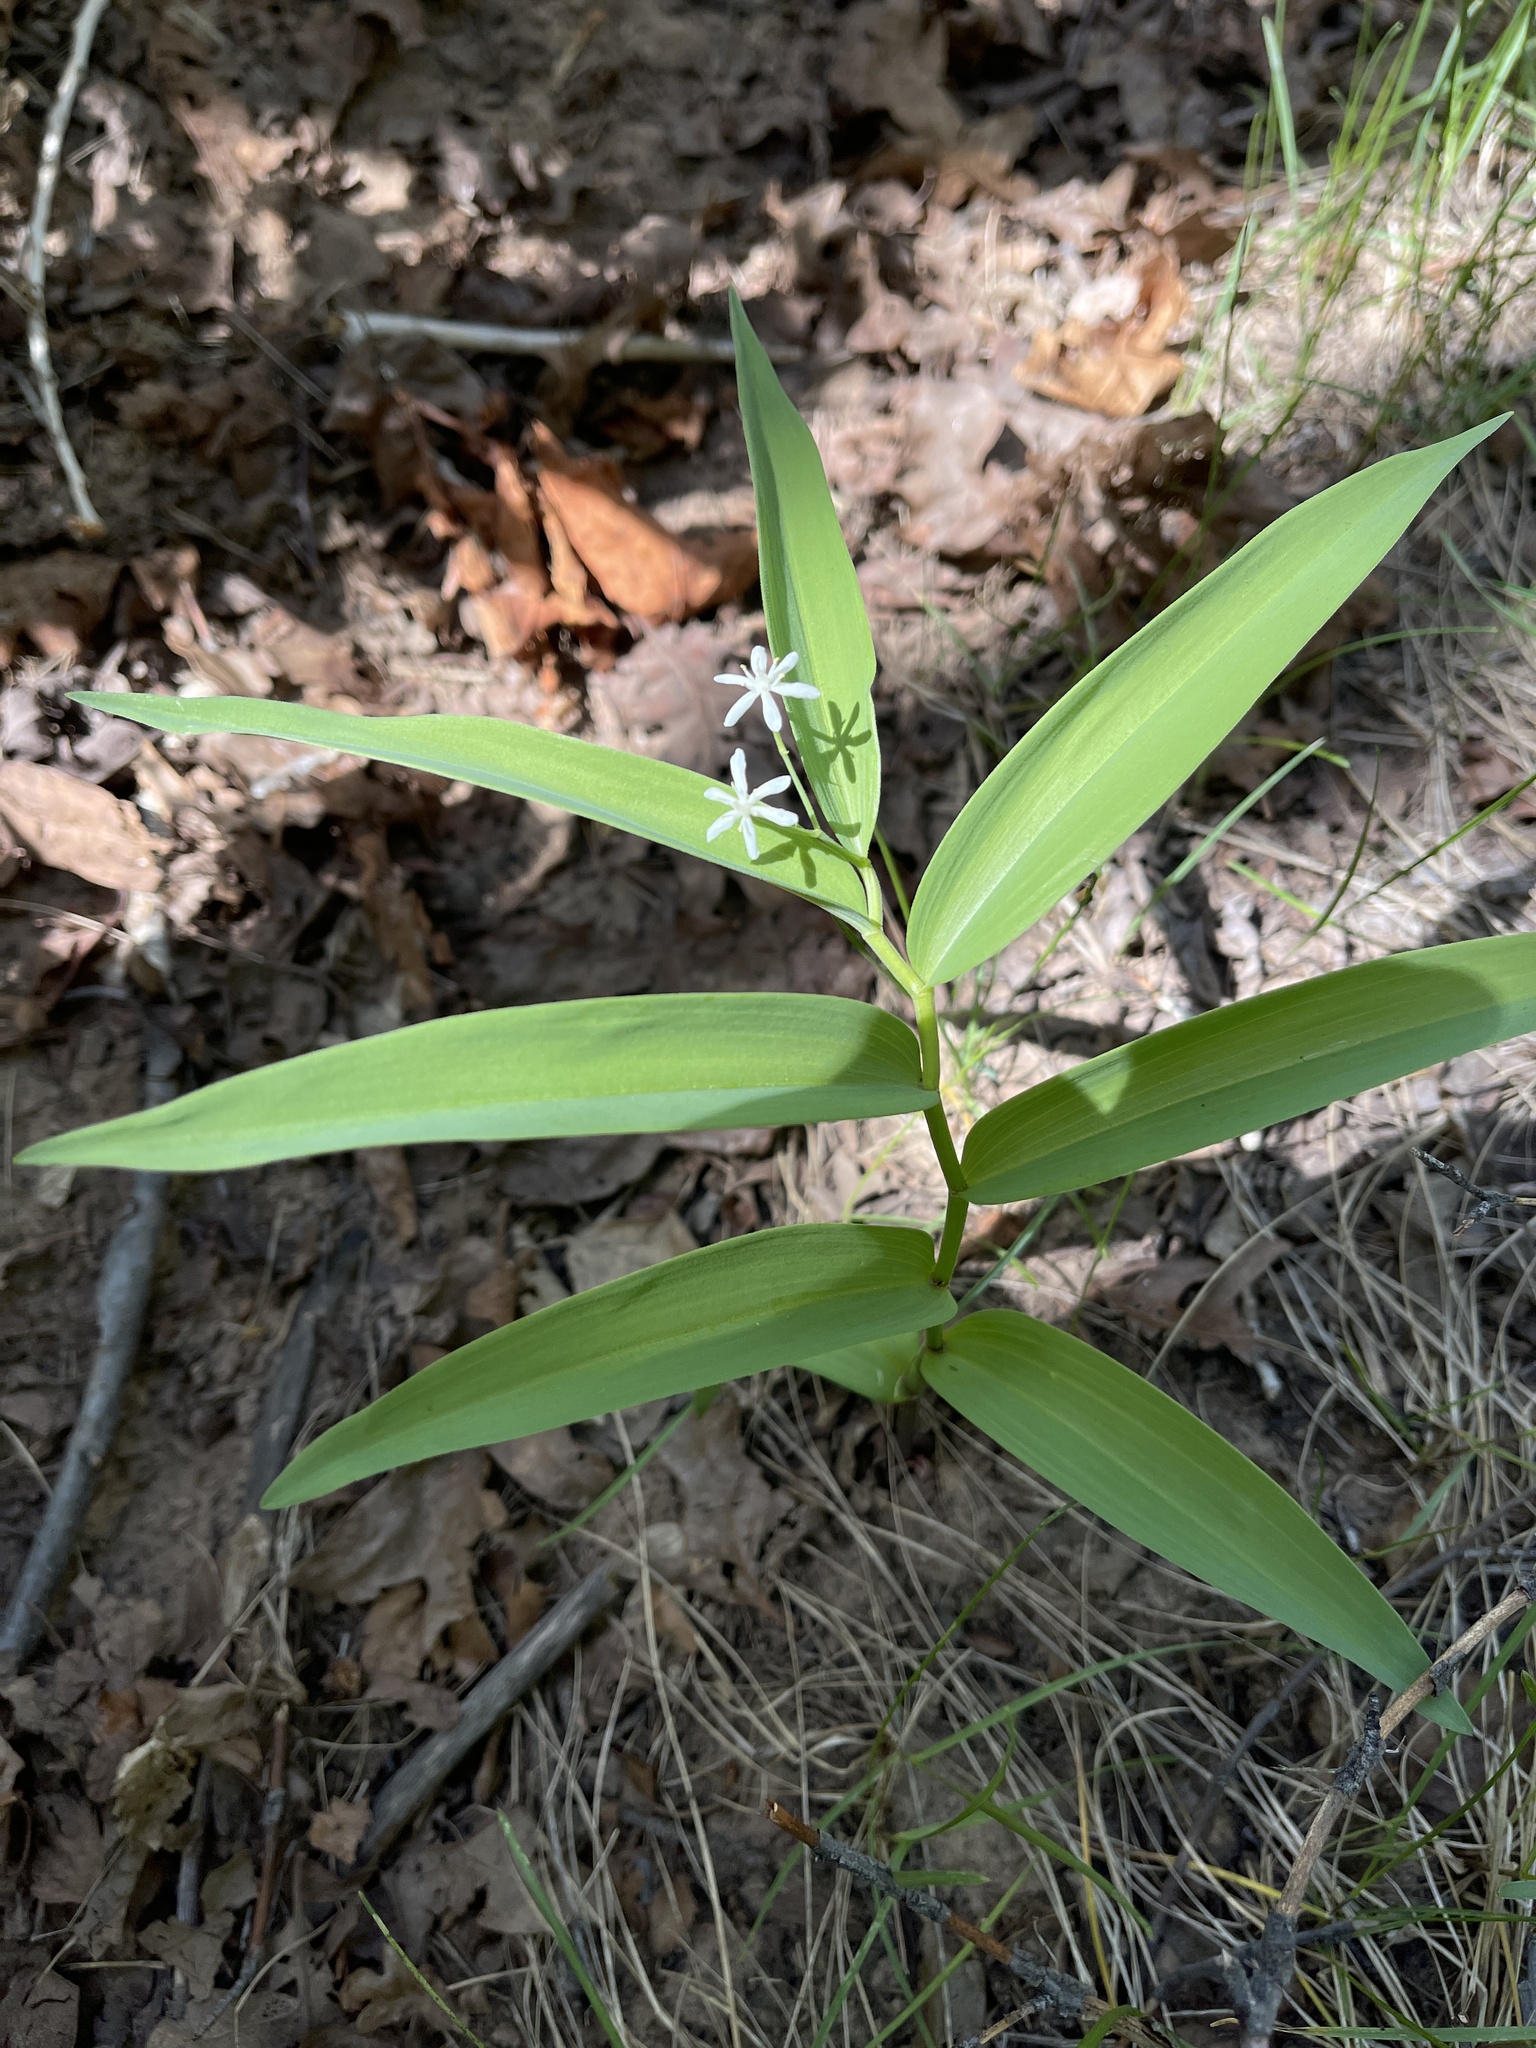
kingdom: Plantae
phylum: Tracheophyta
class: Liliopsida
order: Asparagales
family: Asparagaceae
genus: Maianthemum
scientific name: Maianthemum stellatum
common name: Little false solomon's seal
